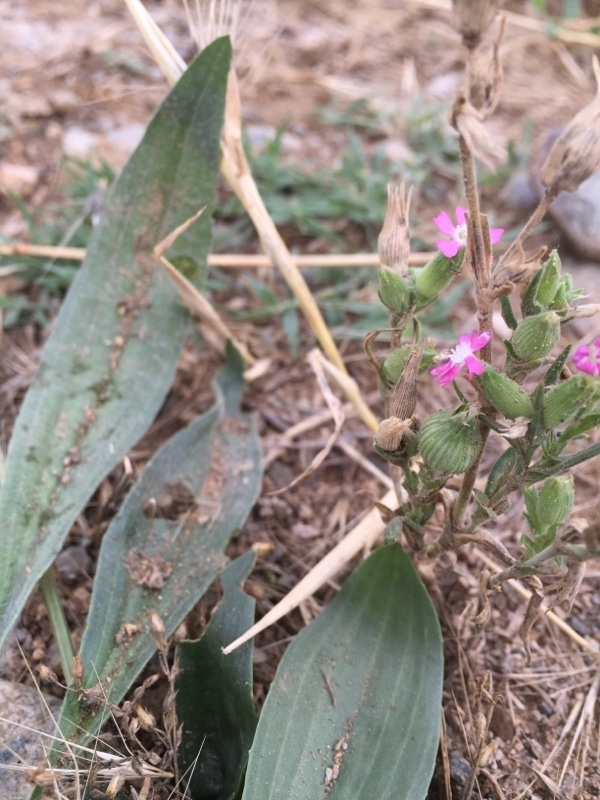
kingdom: Plantae
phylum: Tracheophyta
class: Magnoliopsida
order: Caryophyllales
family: Caryophyllaceae
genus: Silene
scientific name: Silene conica
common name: Sand catchfly
